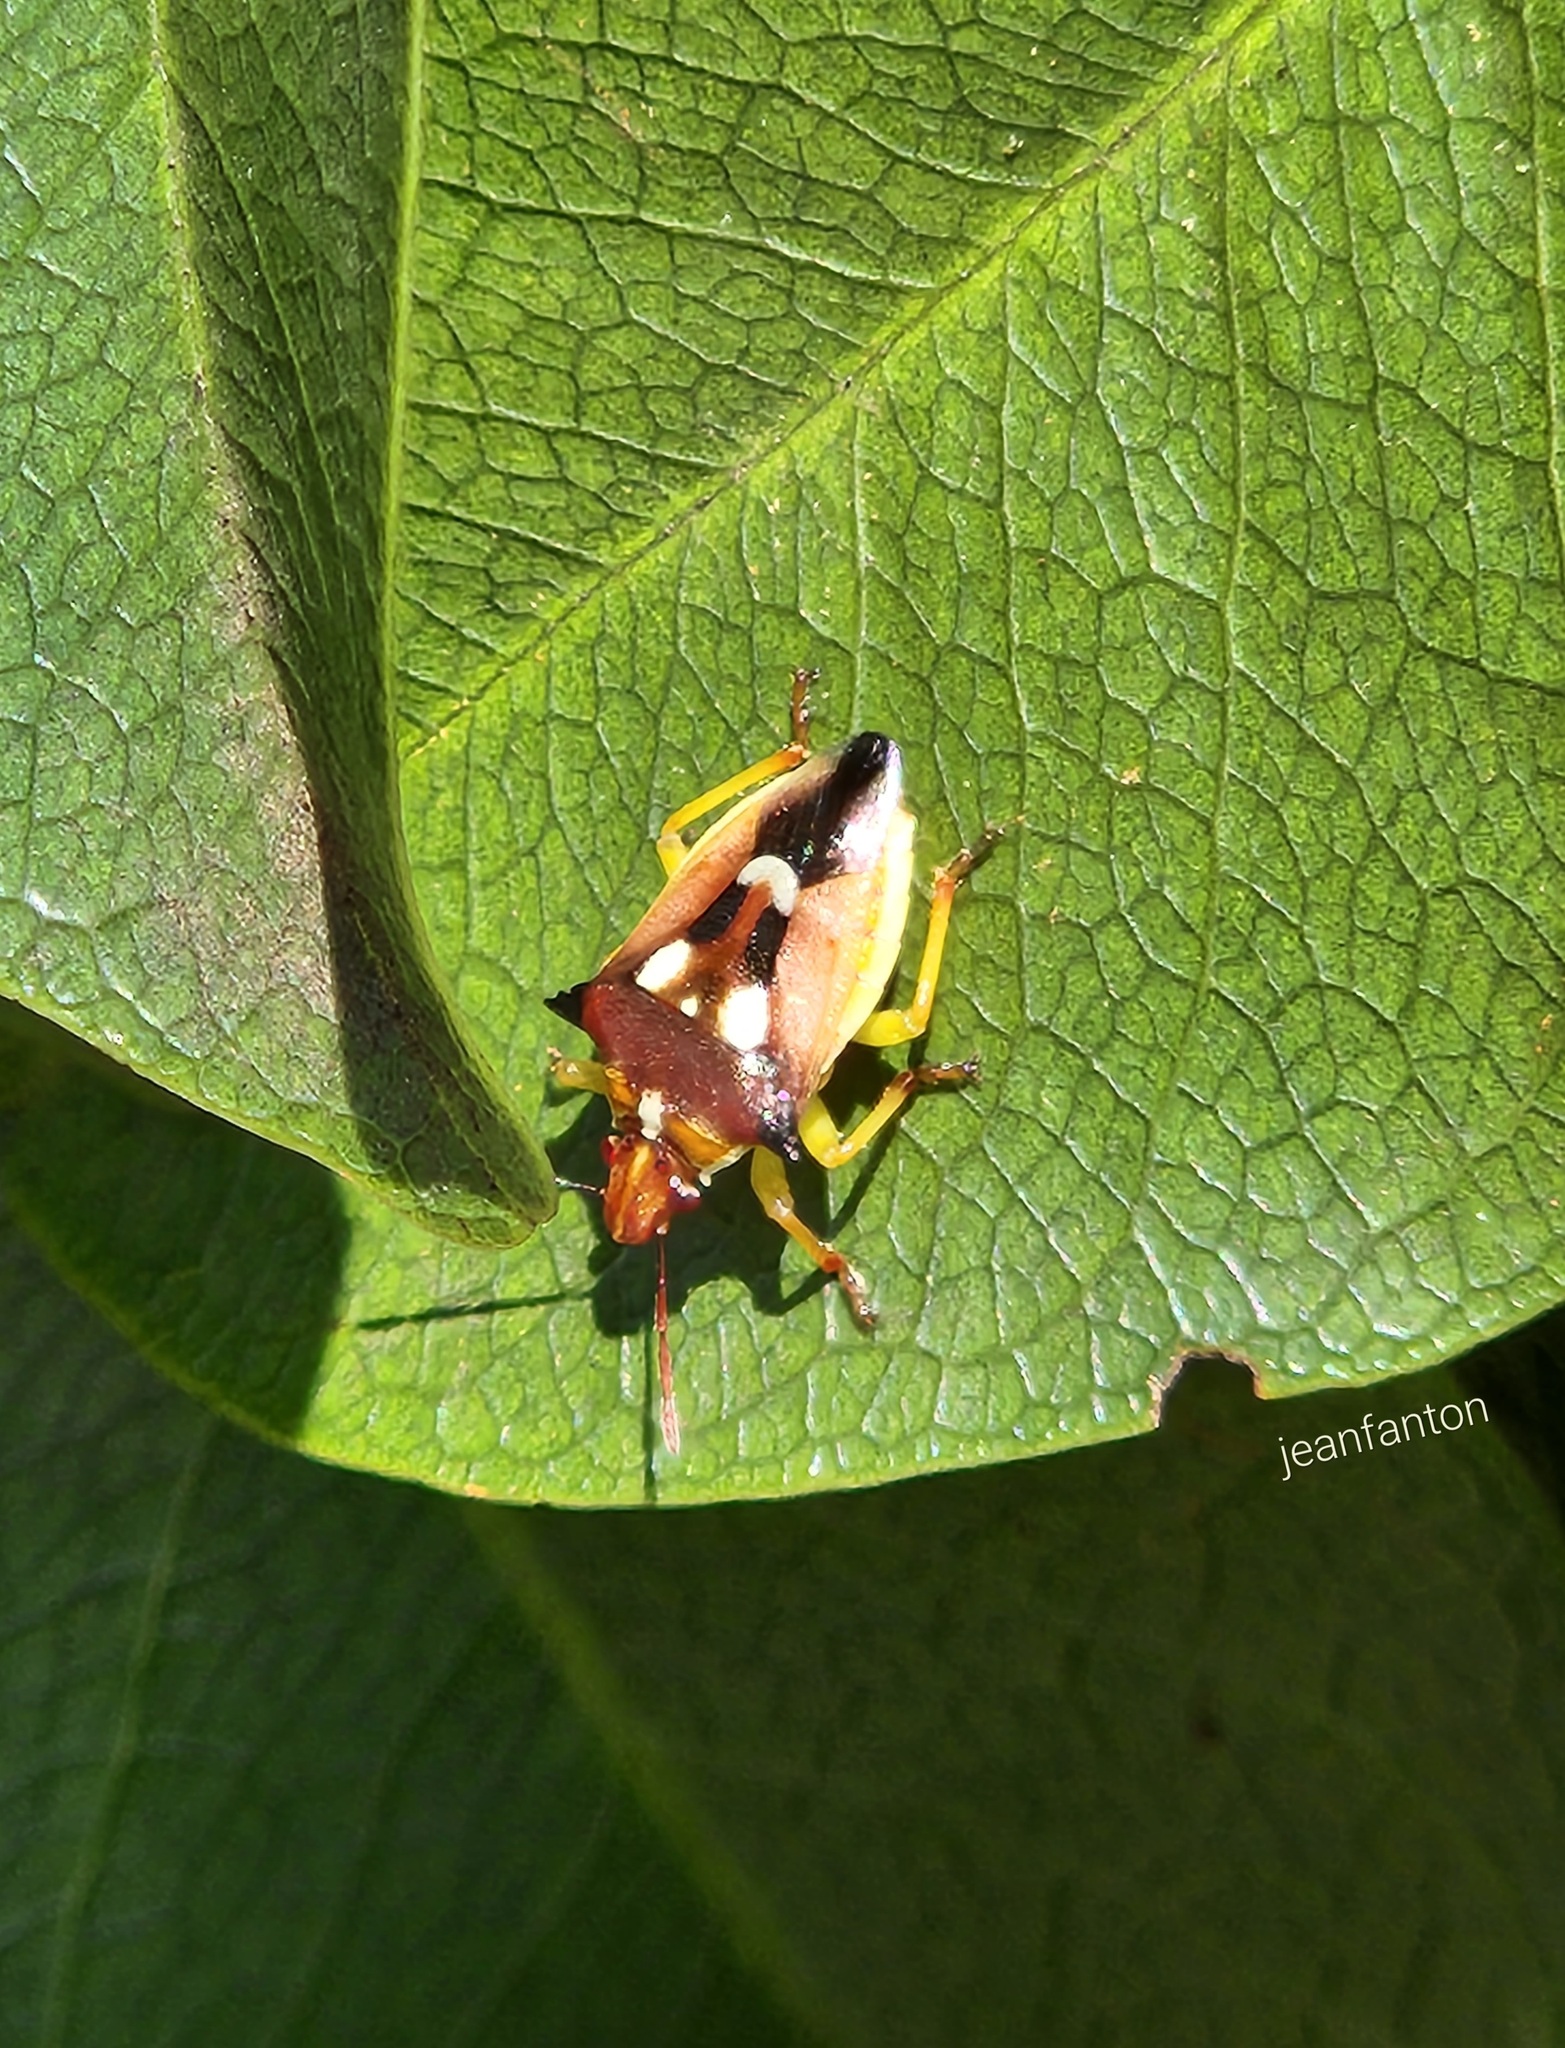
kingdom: Animalia
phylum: Arthropoda
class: Insecta
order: Hemiptera
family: Pentatomidae
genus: Tylospilus
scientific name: Tylospilus cloelia
